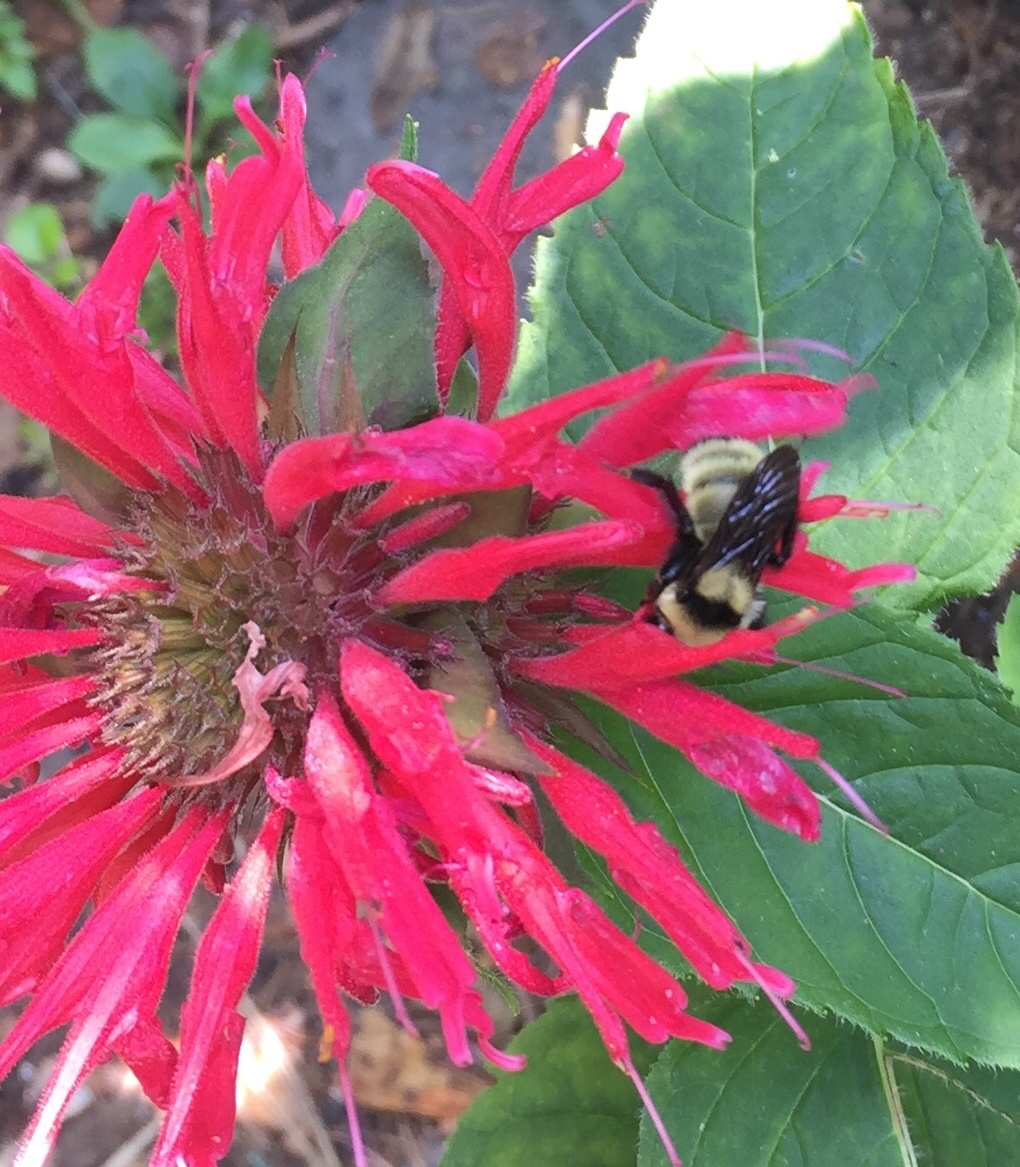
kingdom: Animalia
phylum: Arthropoda
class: Insecta
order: Hymenoptera
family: Apidae
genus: Bombus
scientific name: Bombus fervidus
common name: Yellow bumble bee
